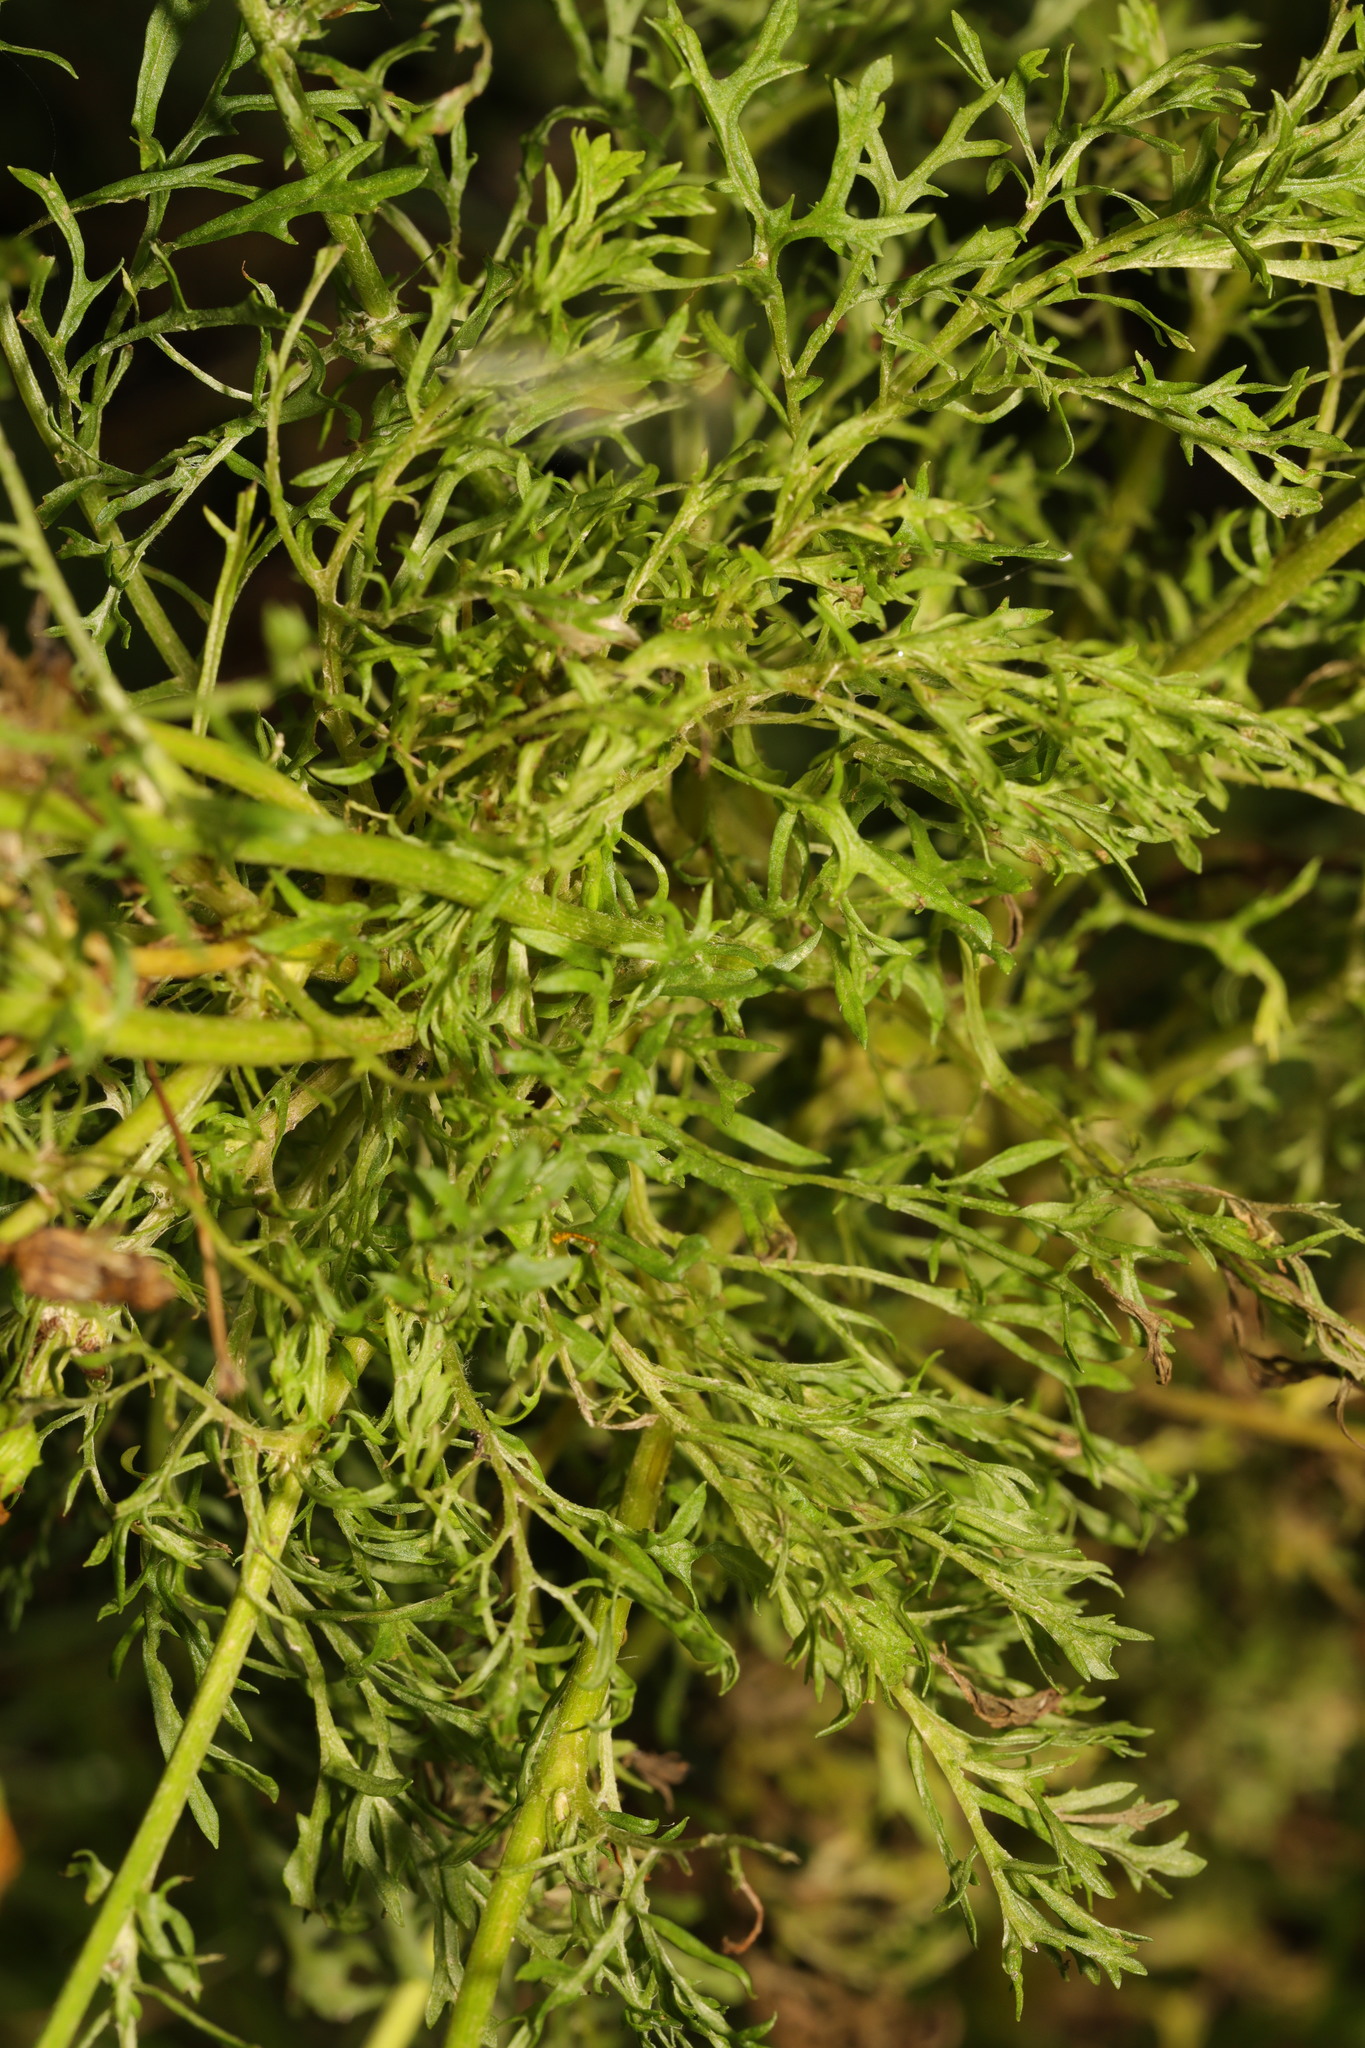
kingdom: Plantae
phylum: Tracheophyta
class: Magnoliopsida
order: Asterales
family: Asteraceae
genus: Jacobaea
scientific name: Jacobaea erucifolia
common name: Hoary ragwort
